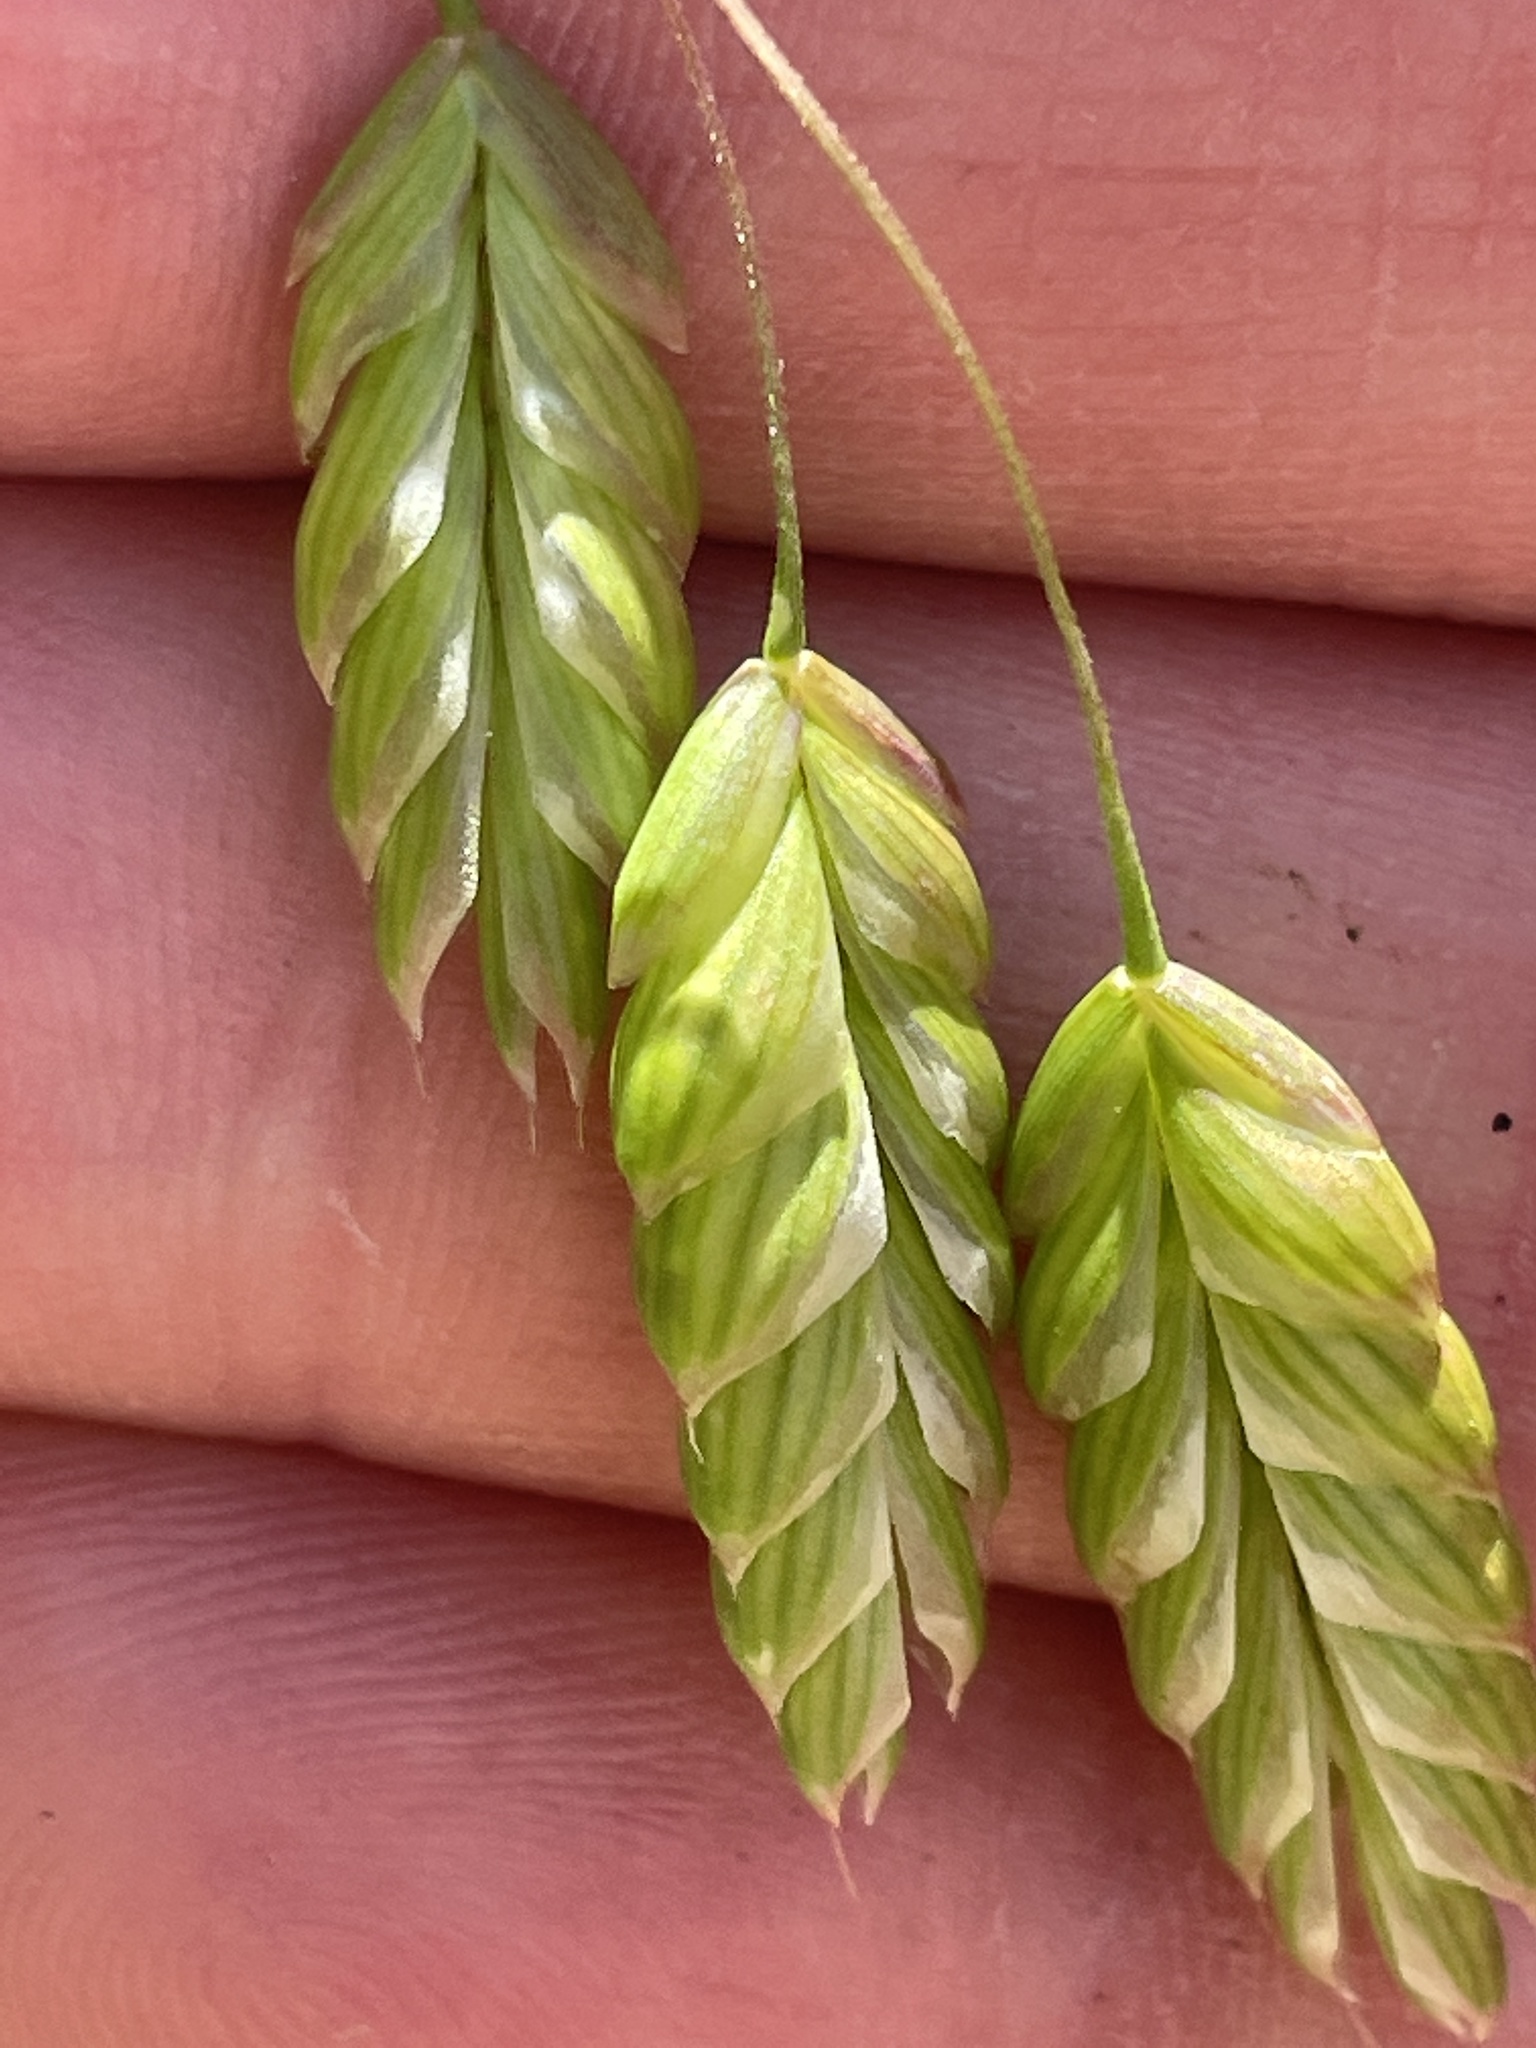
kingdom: Plantae
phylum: Tracheophyta
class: Liliopsida
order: Poales
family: Poaceae
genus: Bromus
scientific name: Bromus briziformis
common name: Rattlesnake brome
